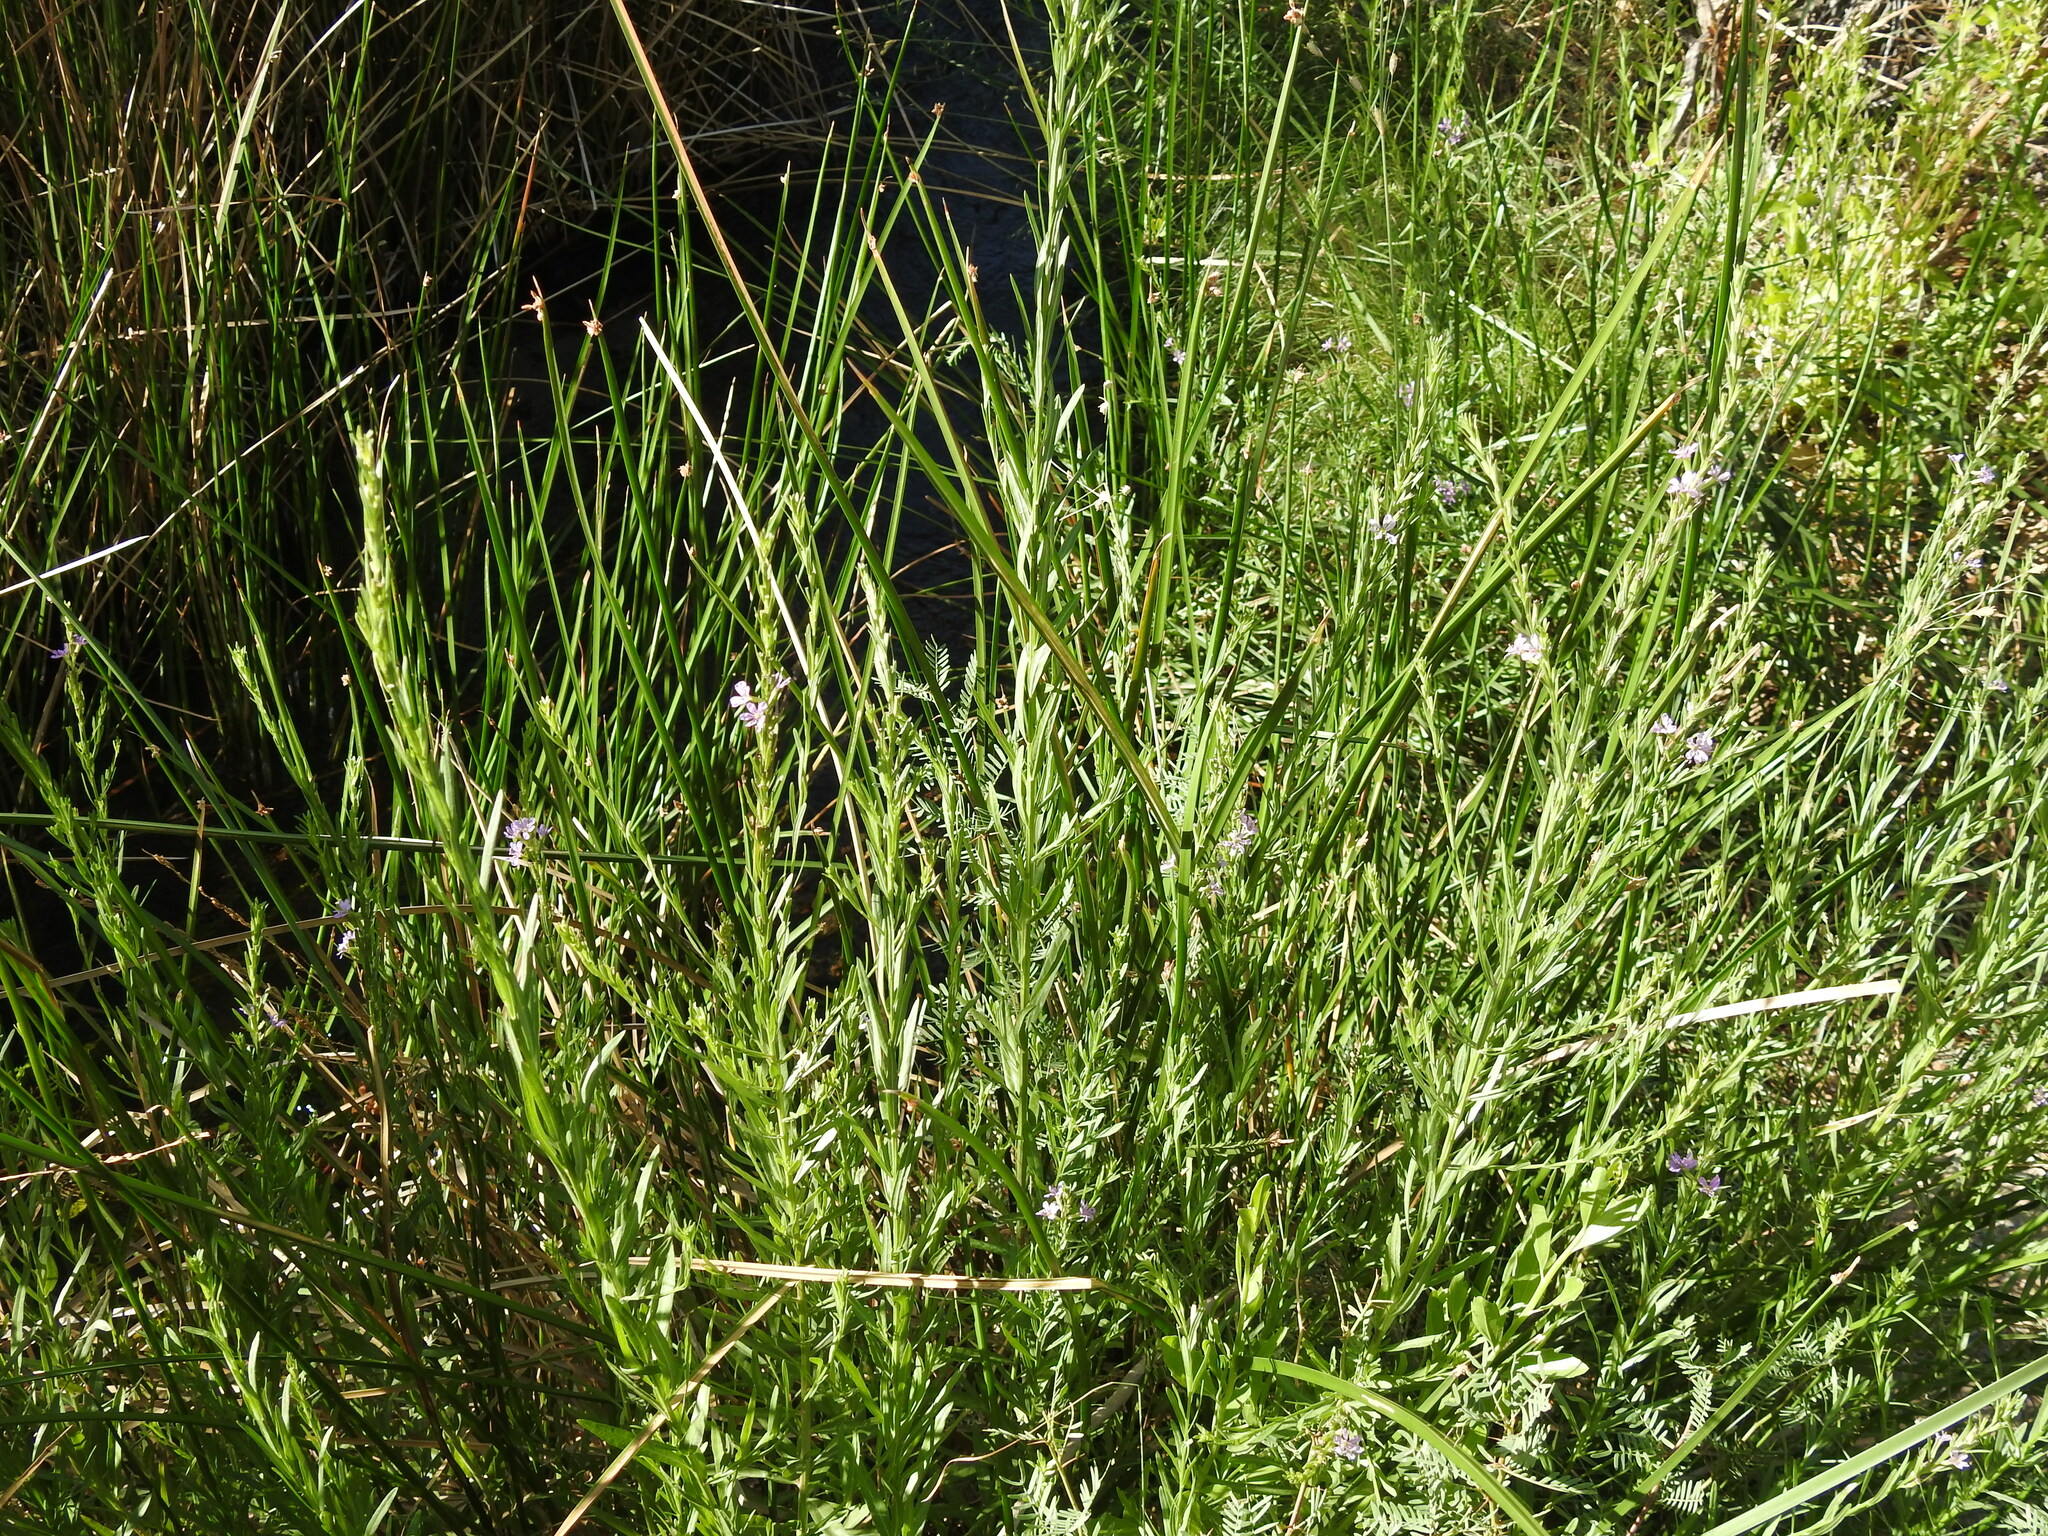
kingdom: Plantae
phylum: Tracheophyta
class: Magnoliopsida
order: Myrtales
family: Lythraceae
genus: Lythrum
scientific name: Lythrum californicum
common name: California loosestrife
